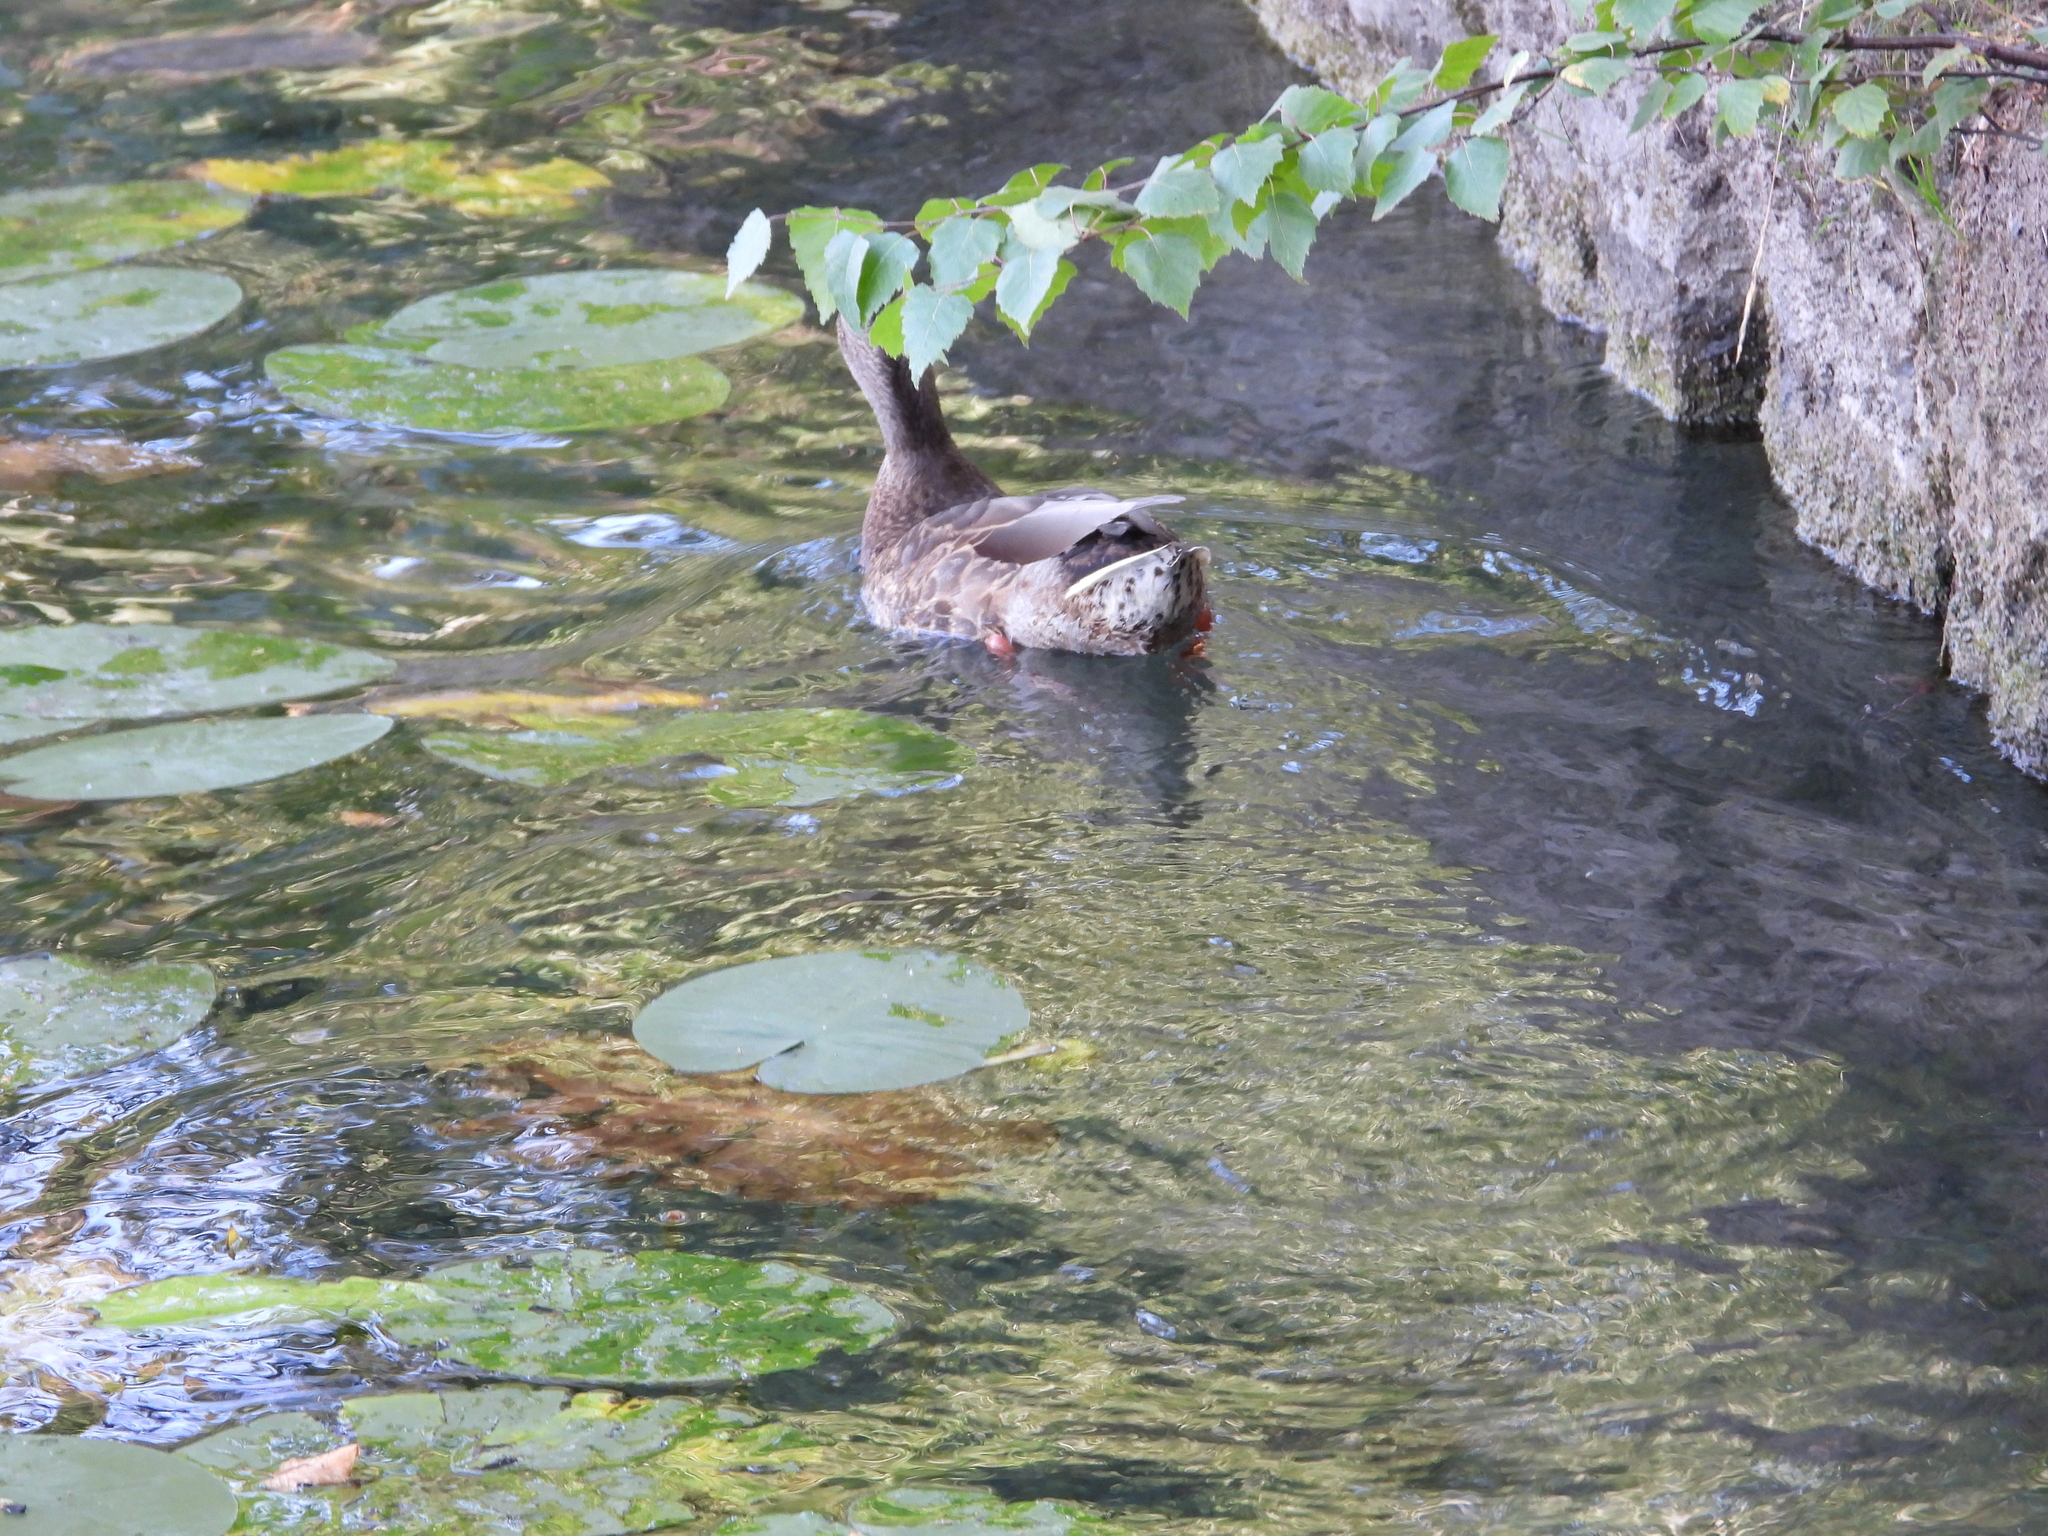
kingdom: Animalia
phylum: Chordata
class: Aves
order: Anseriformes
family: Anatidae
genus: Anas
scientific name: Anas platyrhynchos
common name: Mallard
